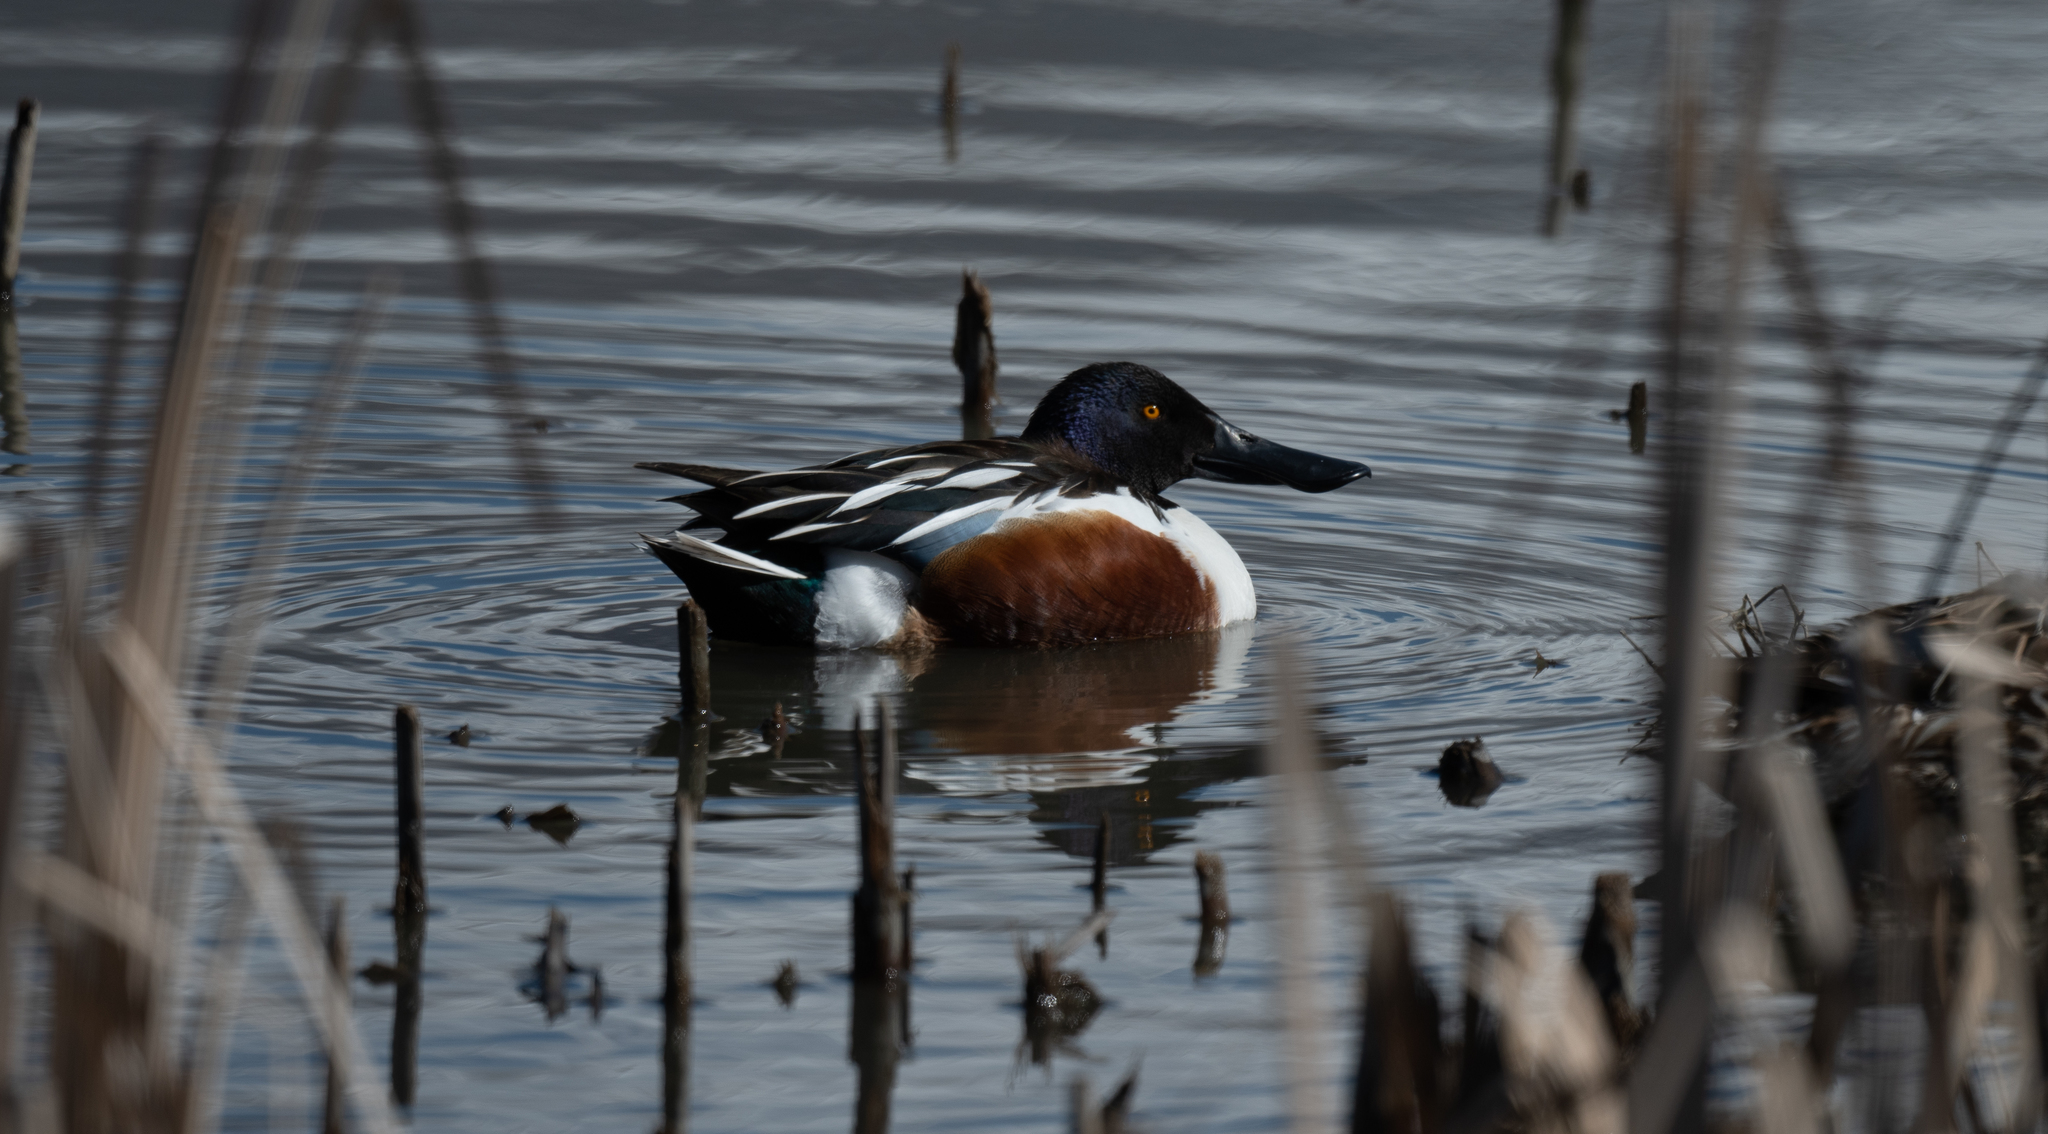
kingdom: Animalia
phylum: Chordata
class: Aves
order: Anseriformes
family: Anatidae
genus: Spatula
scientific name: Spatula clypeata
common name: Northern shoveler
